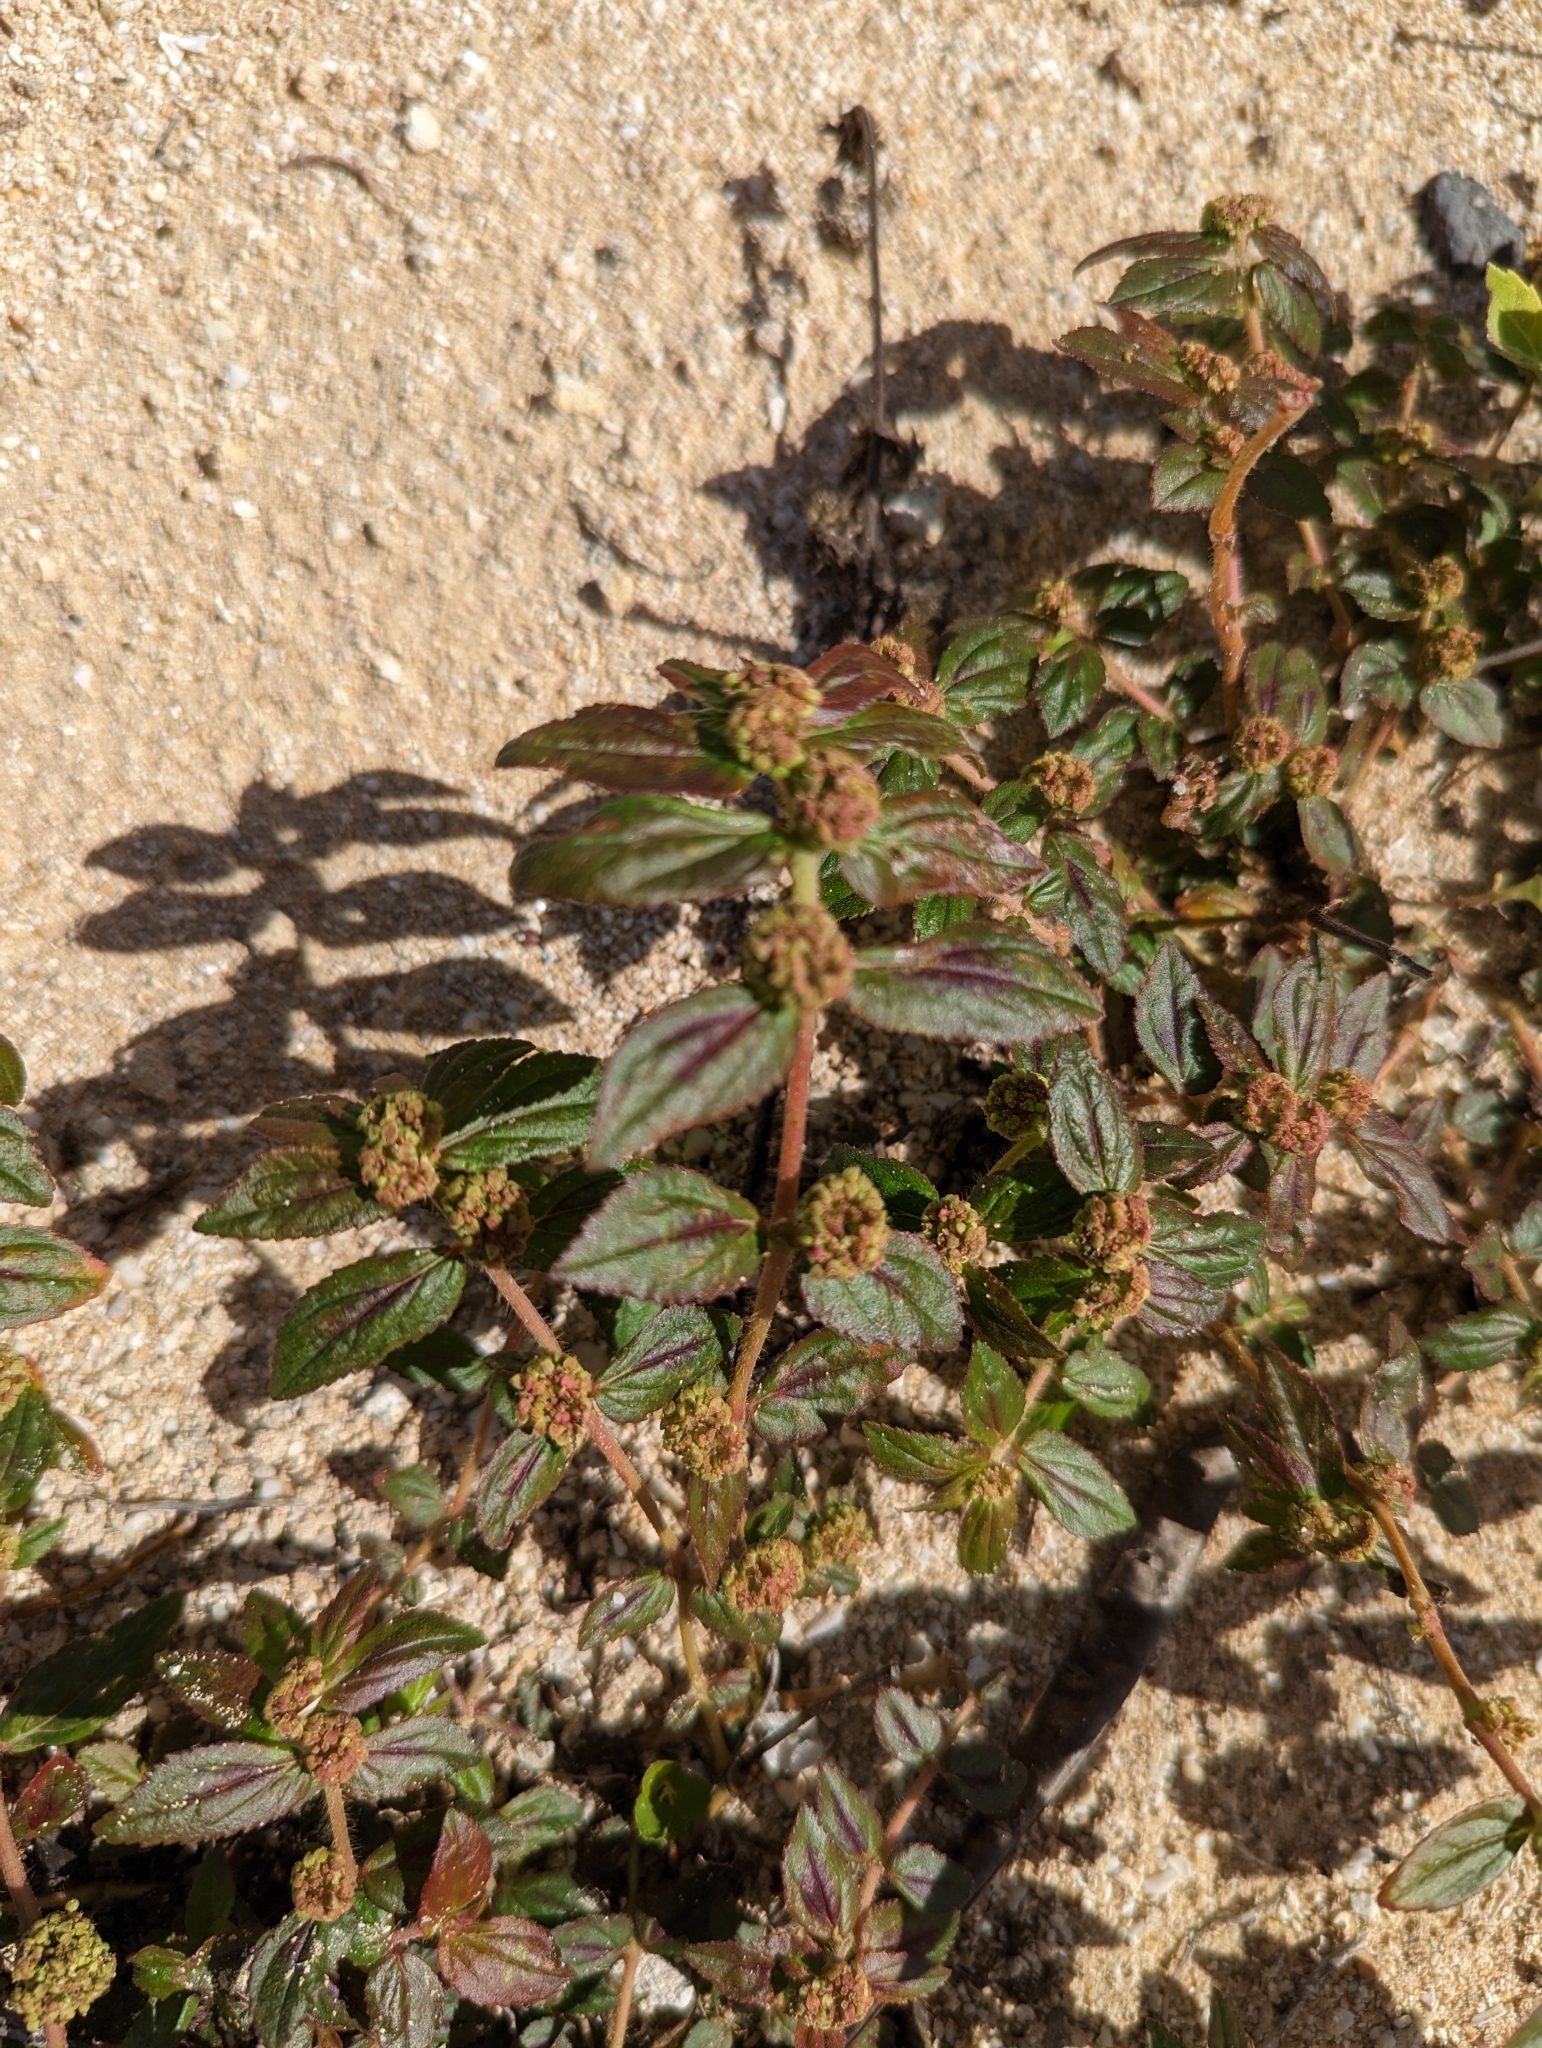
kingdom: Plantae
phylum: Tracheophyta
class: Magnoliopsida
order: Malpighiales
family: Euphorbiaceae
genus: Euphorbia
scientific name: Euphorbia hirta
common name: Pillpod sandmat
